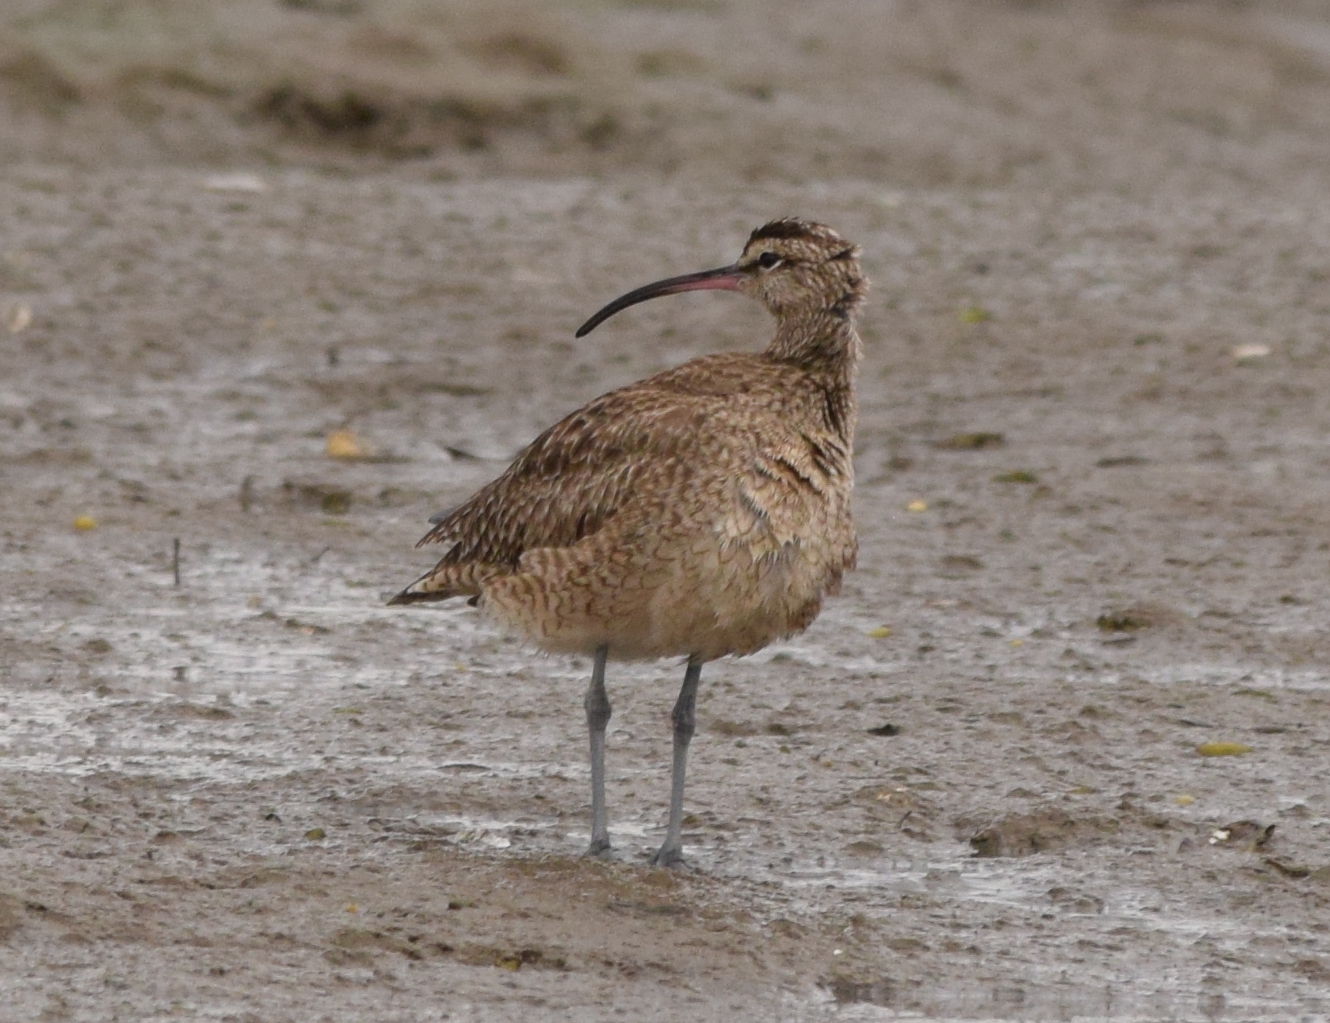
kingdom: Animalia
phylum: Chordata
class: Aves
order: Charadriiformes
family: Scolopacidae
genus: Numenius
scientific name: Numenius phaeopus
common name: Whimbrel
